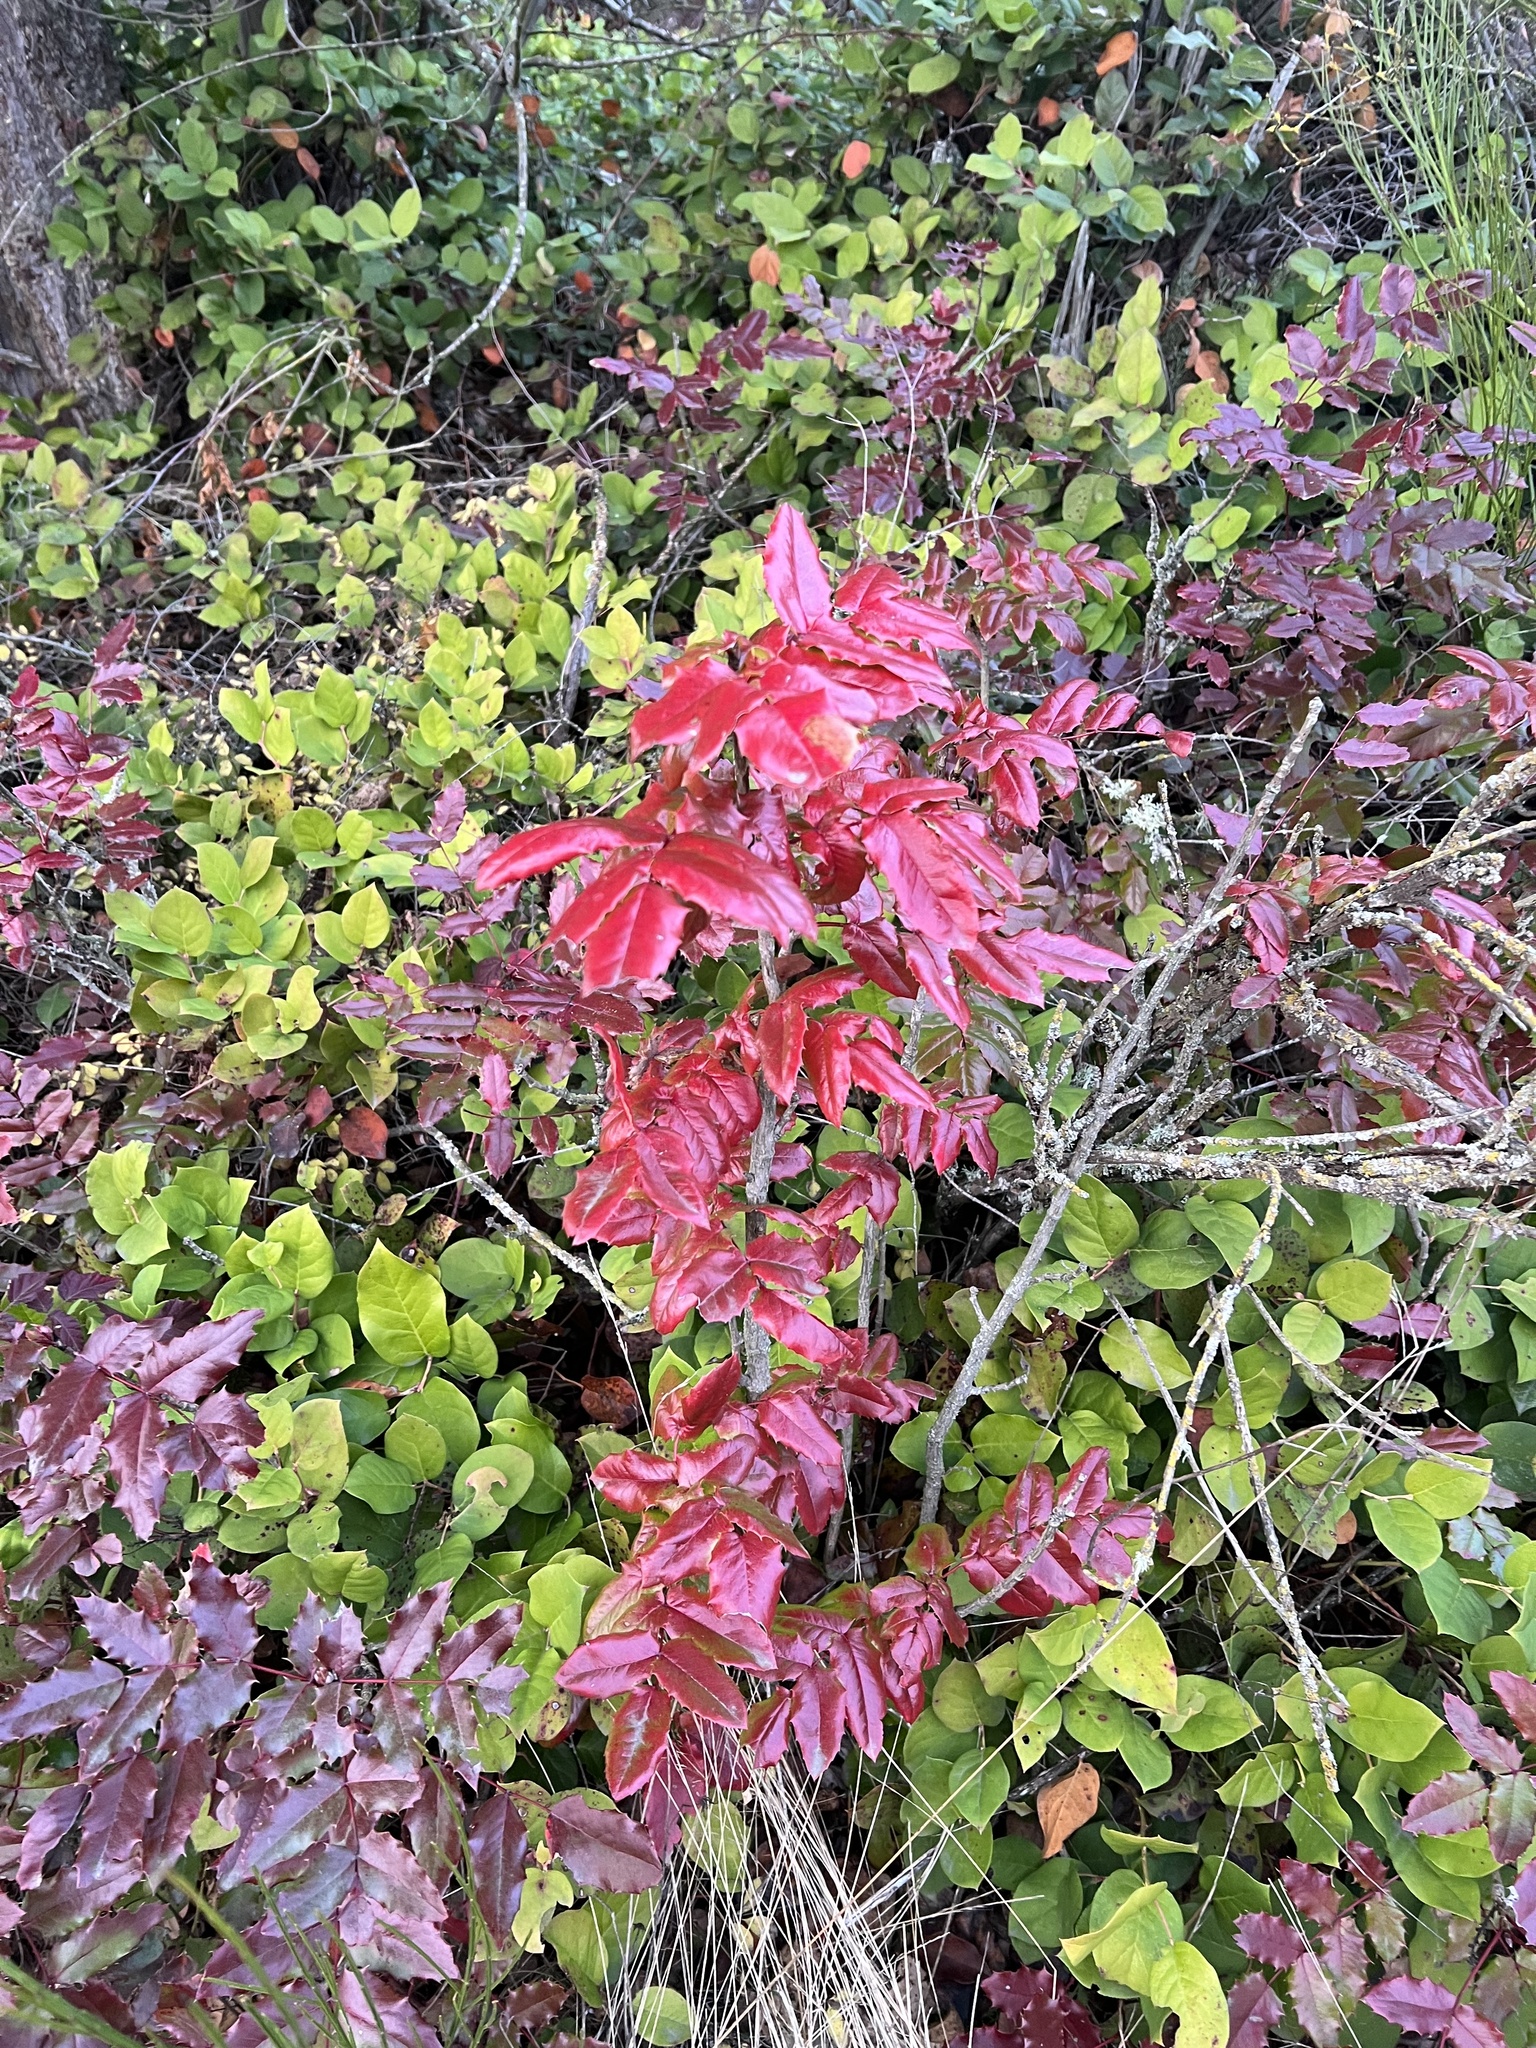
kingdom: Plantae
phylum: Tracheophyta
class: Magnoliopsida
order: Ranunculales
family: Berberidaceae
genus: Mahonia
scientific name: Mahonia aquifolium
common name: Oregon-grape
